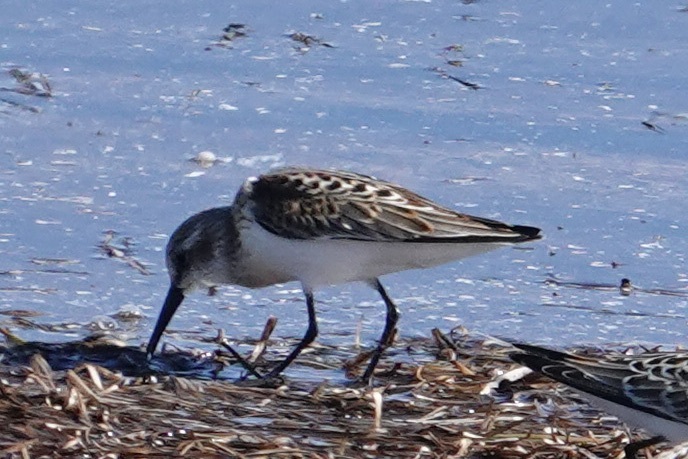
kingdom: Animalia
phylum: Chordata
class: Aves
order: Charadriiformes
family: Scolopacidae
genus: Calidris
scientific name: Calidris mauri
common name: Western sandpiper
